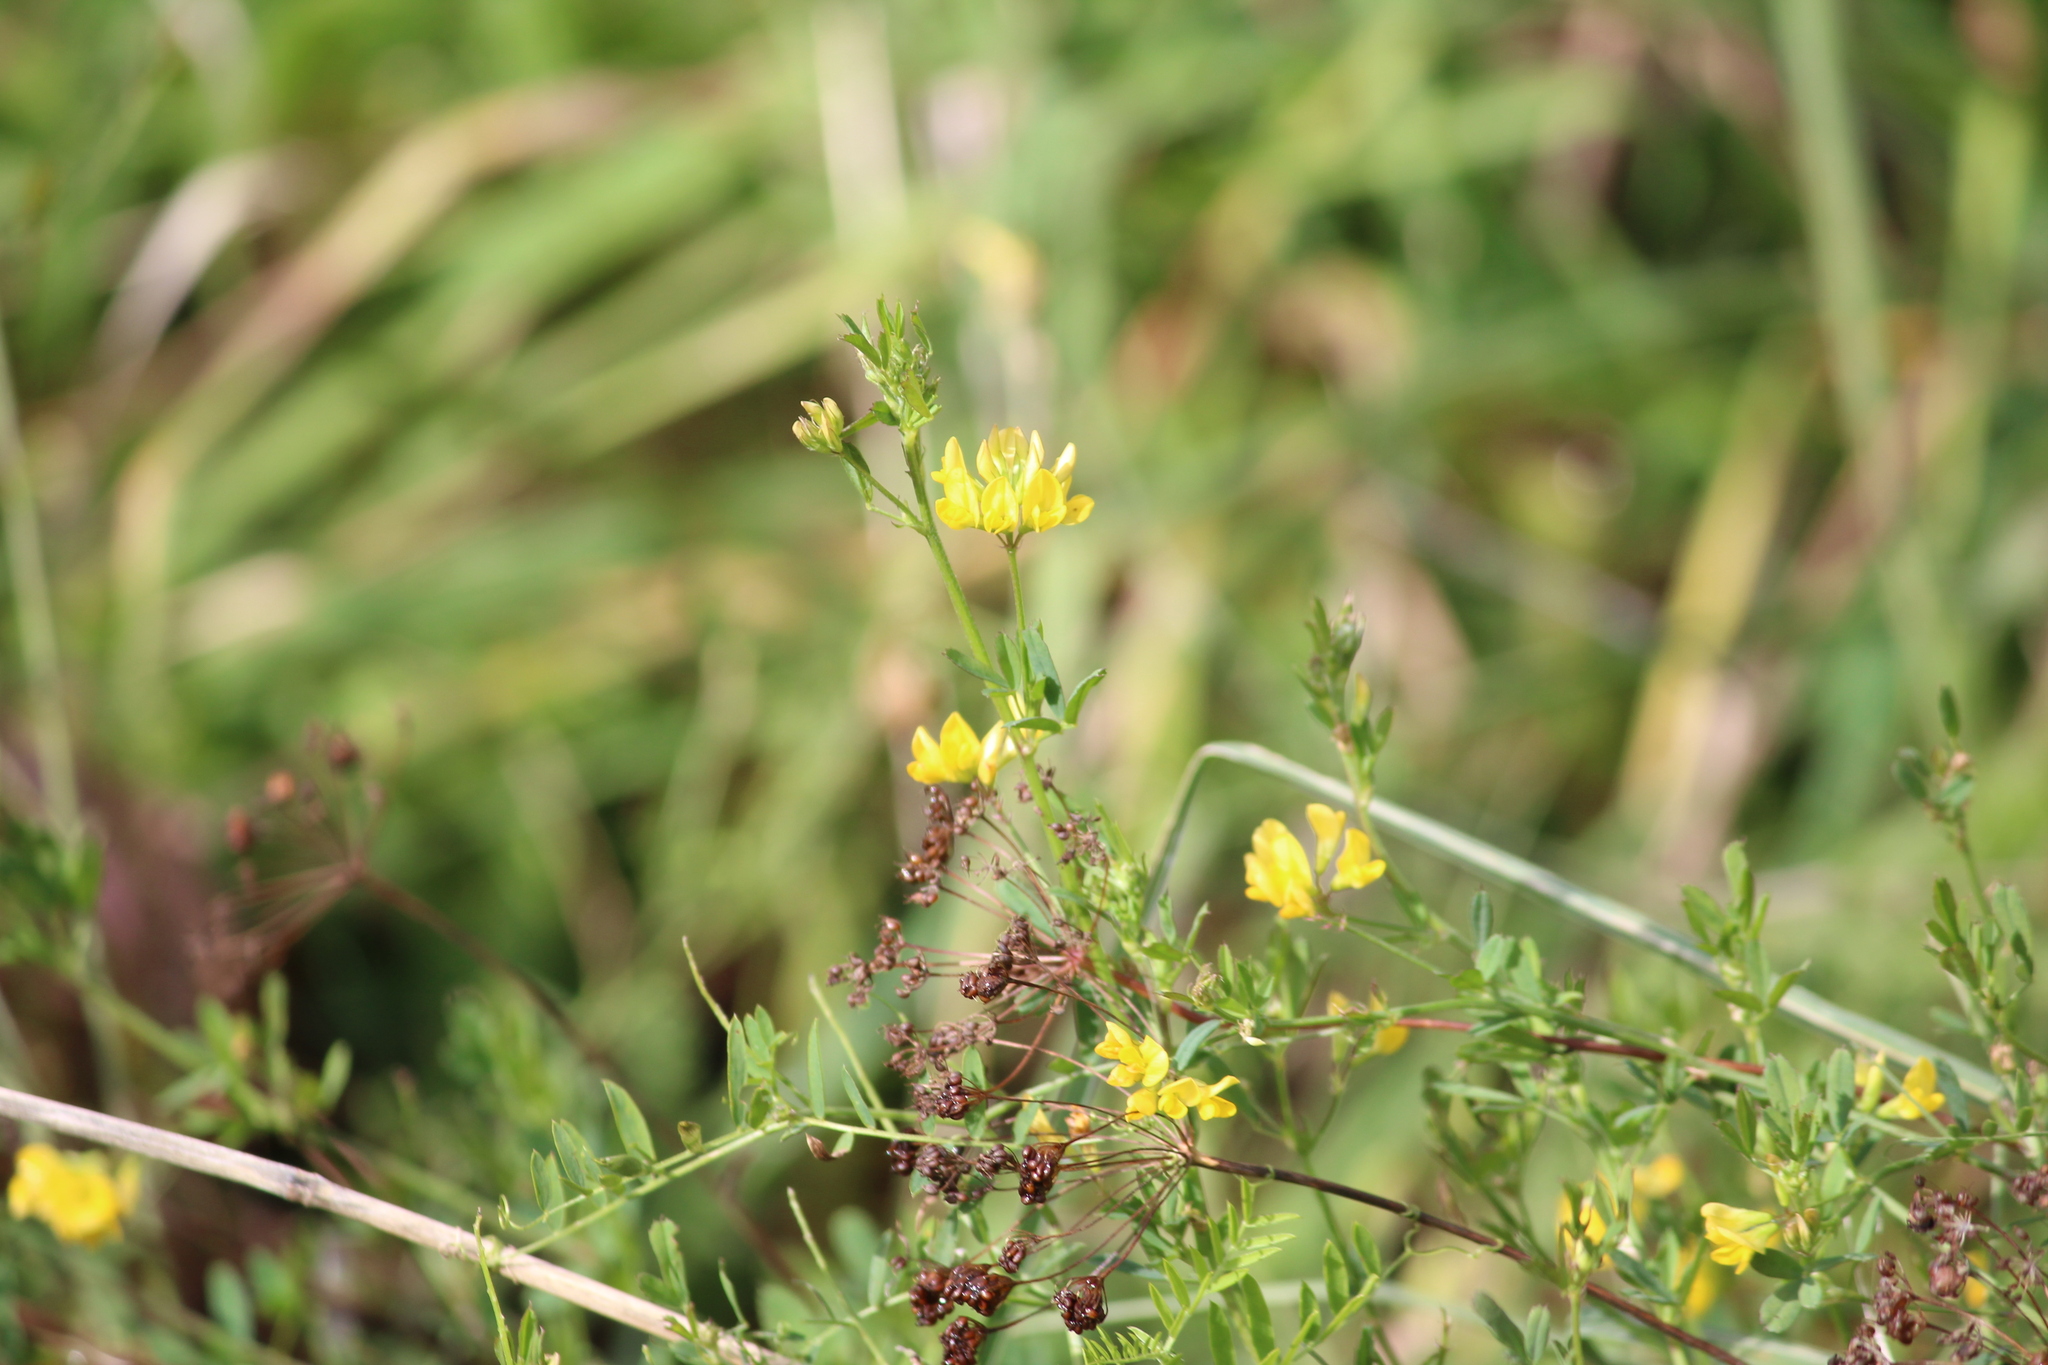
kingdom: Plantae
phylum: Tracheophyta
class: Magnoliopsida
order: Fabales
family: Fabaceae
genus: Medicago
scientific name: Medicago falcata
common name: Sickle medick
